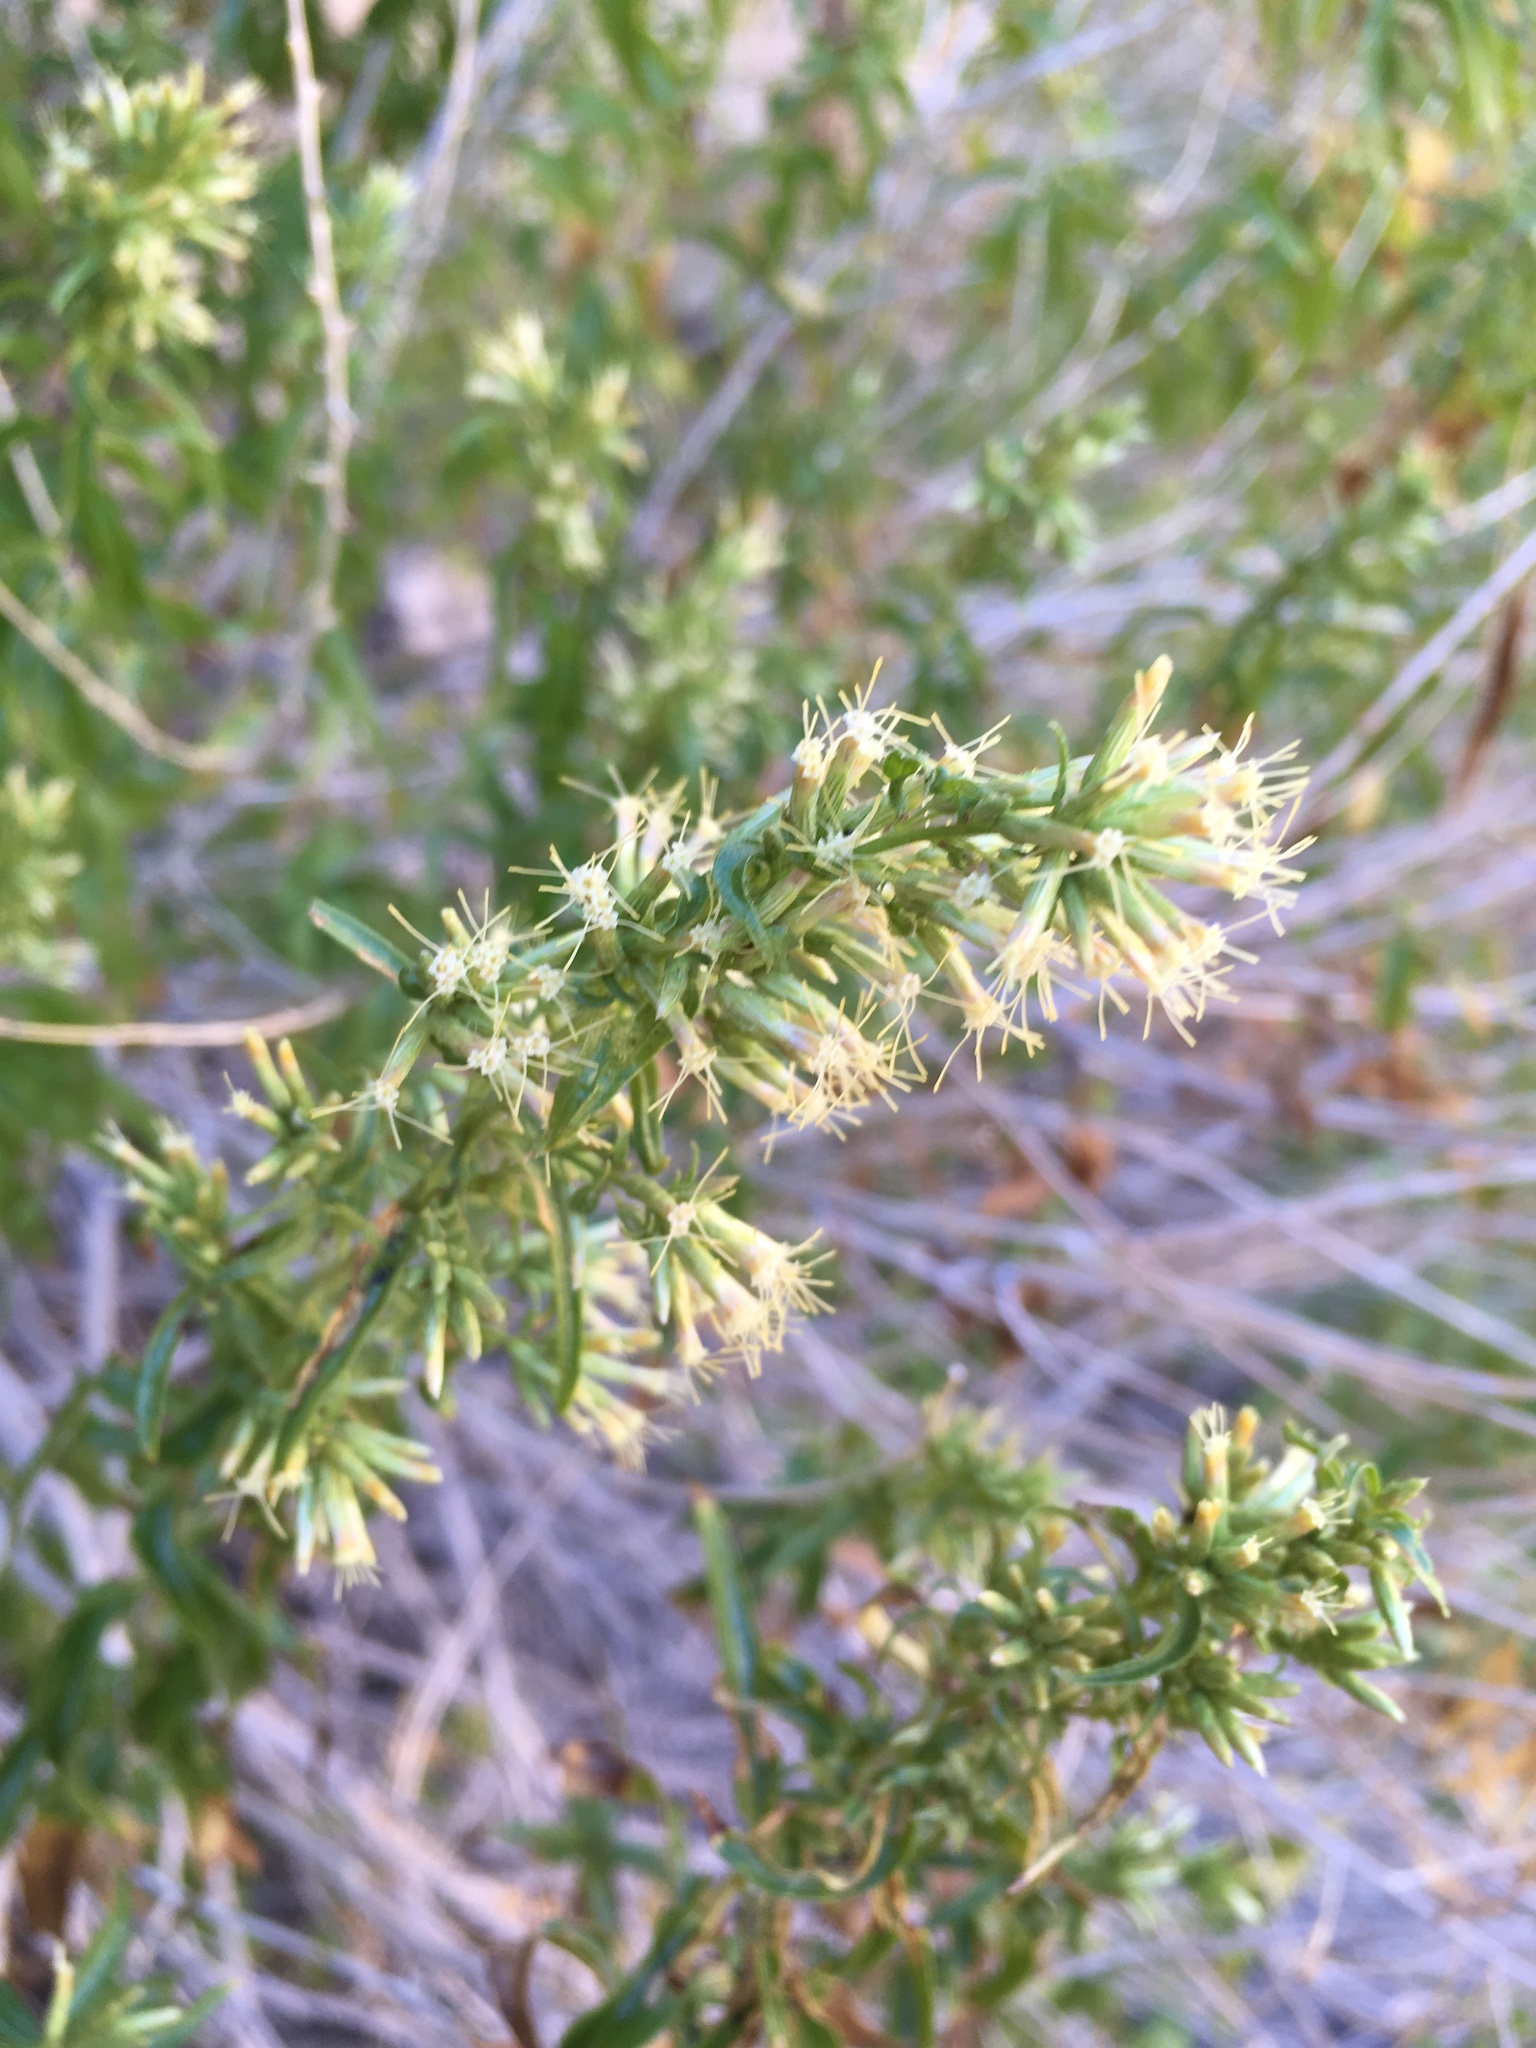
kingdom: Plantae
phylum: Tracheophyta
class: Magnoliopsida
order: Asterales
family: Asteraceae
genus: Brickellia
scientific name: Brickellia longifolia
